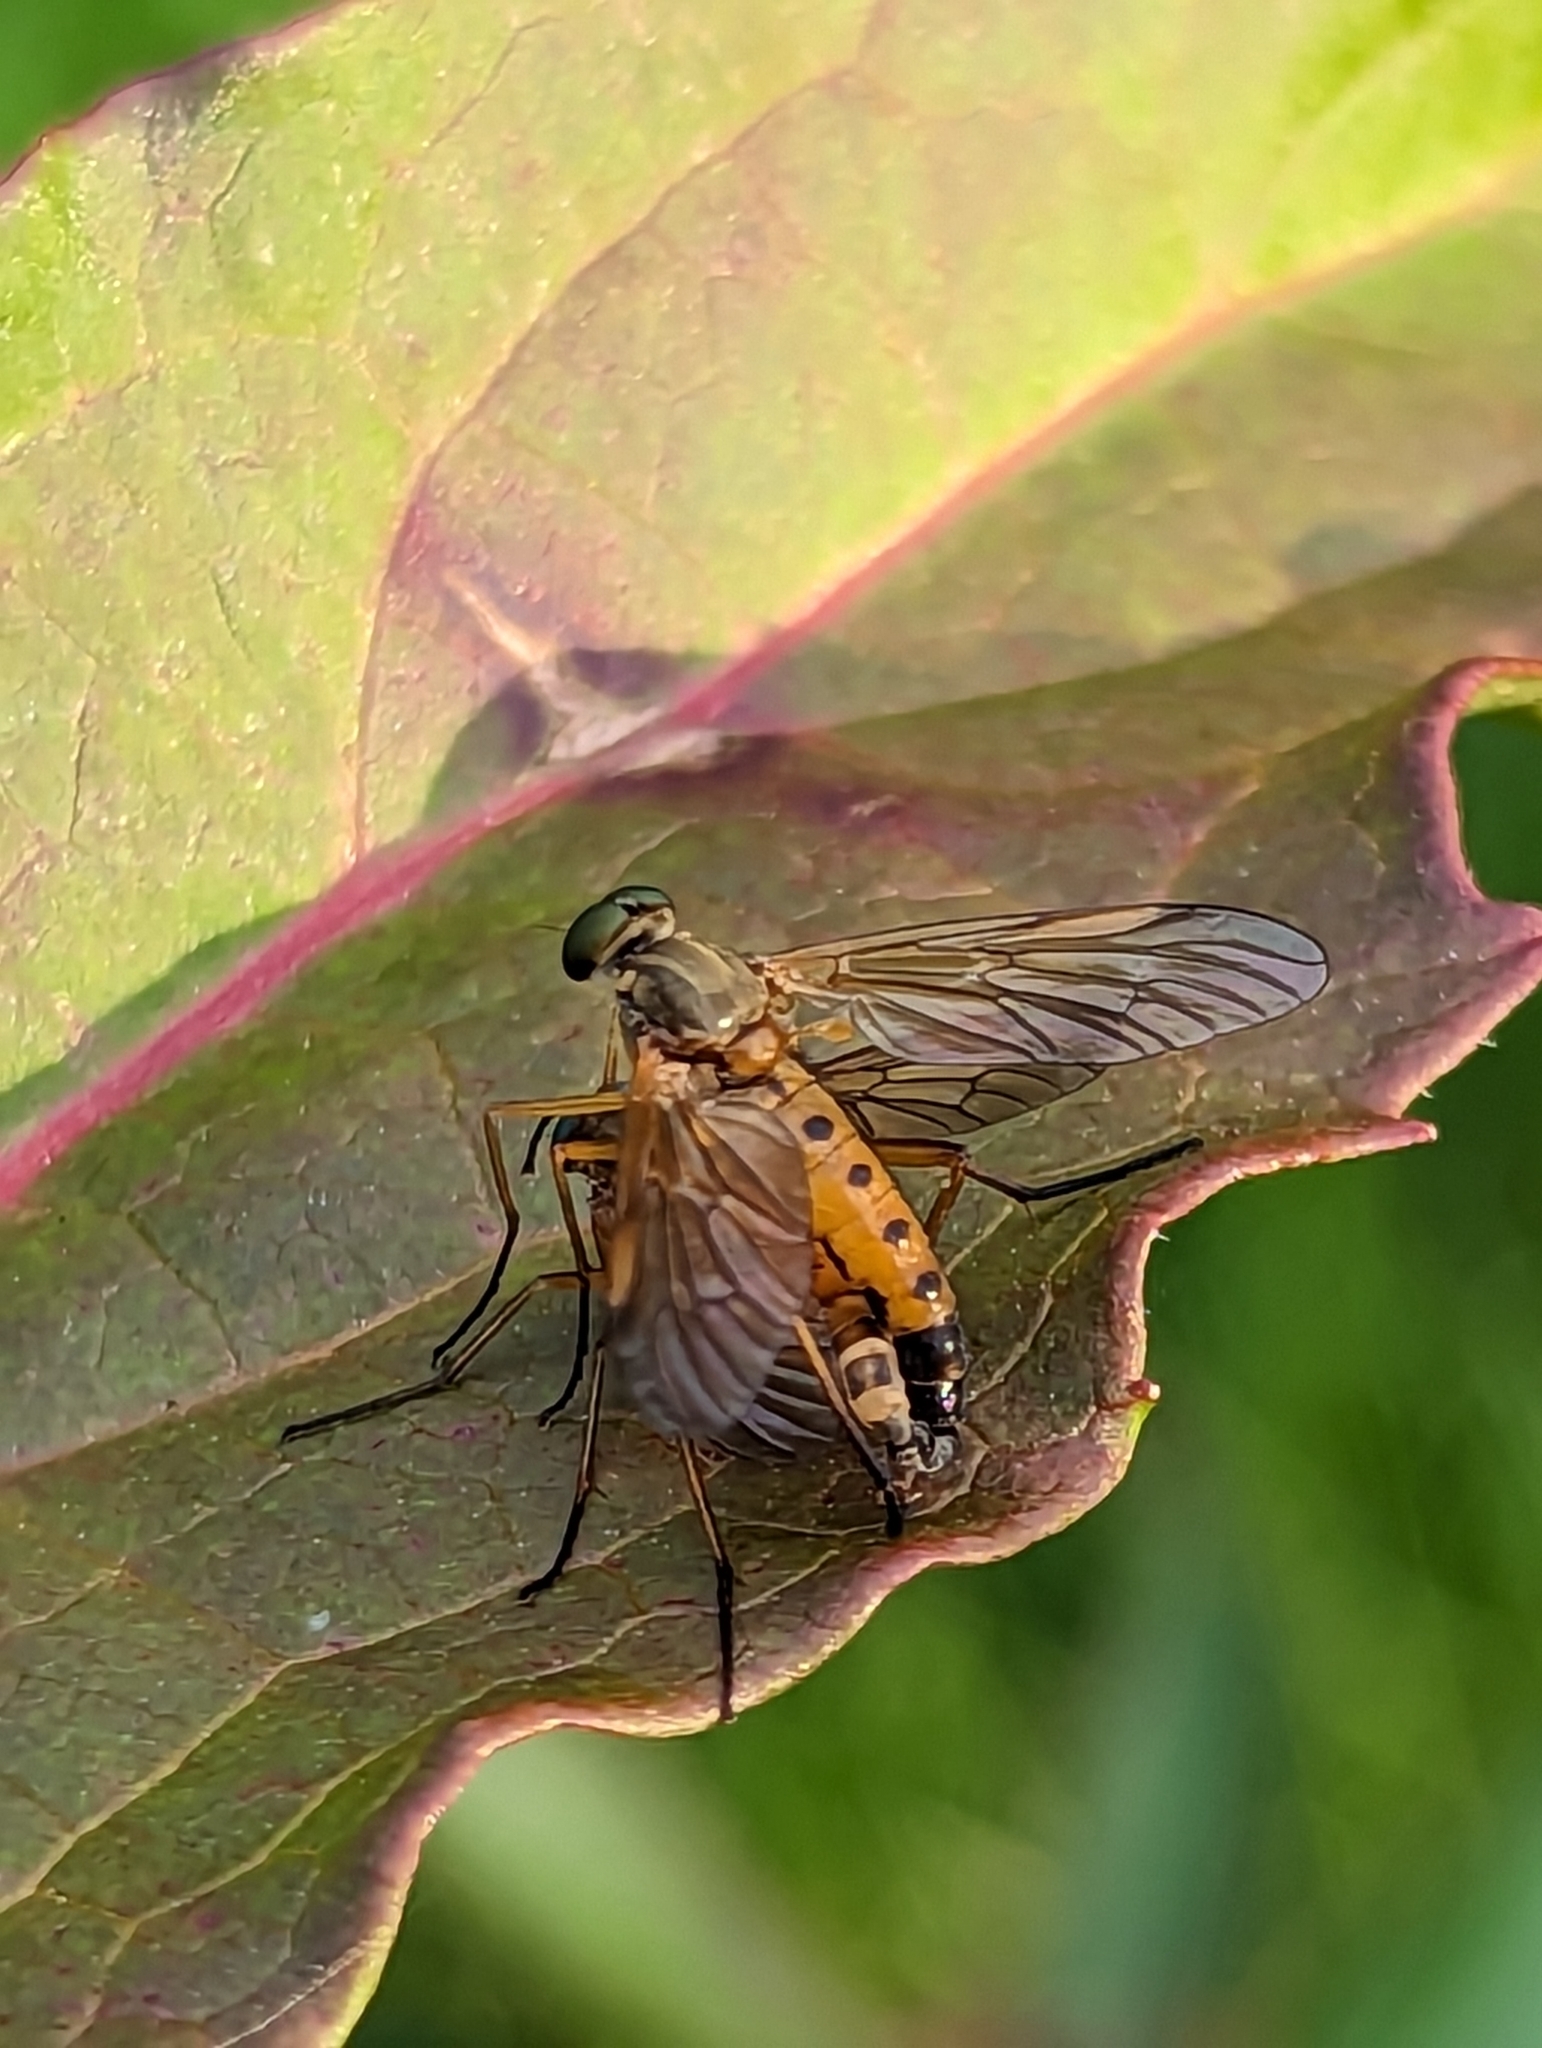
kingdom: Animalia
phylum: Arthropoda
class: Insecta
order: Diptera
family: Rhagionidae
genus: Rhagio
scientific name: Rhagio tringaria
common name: Marsh snipefly
